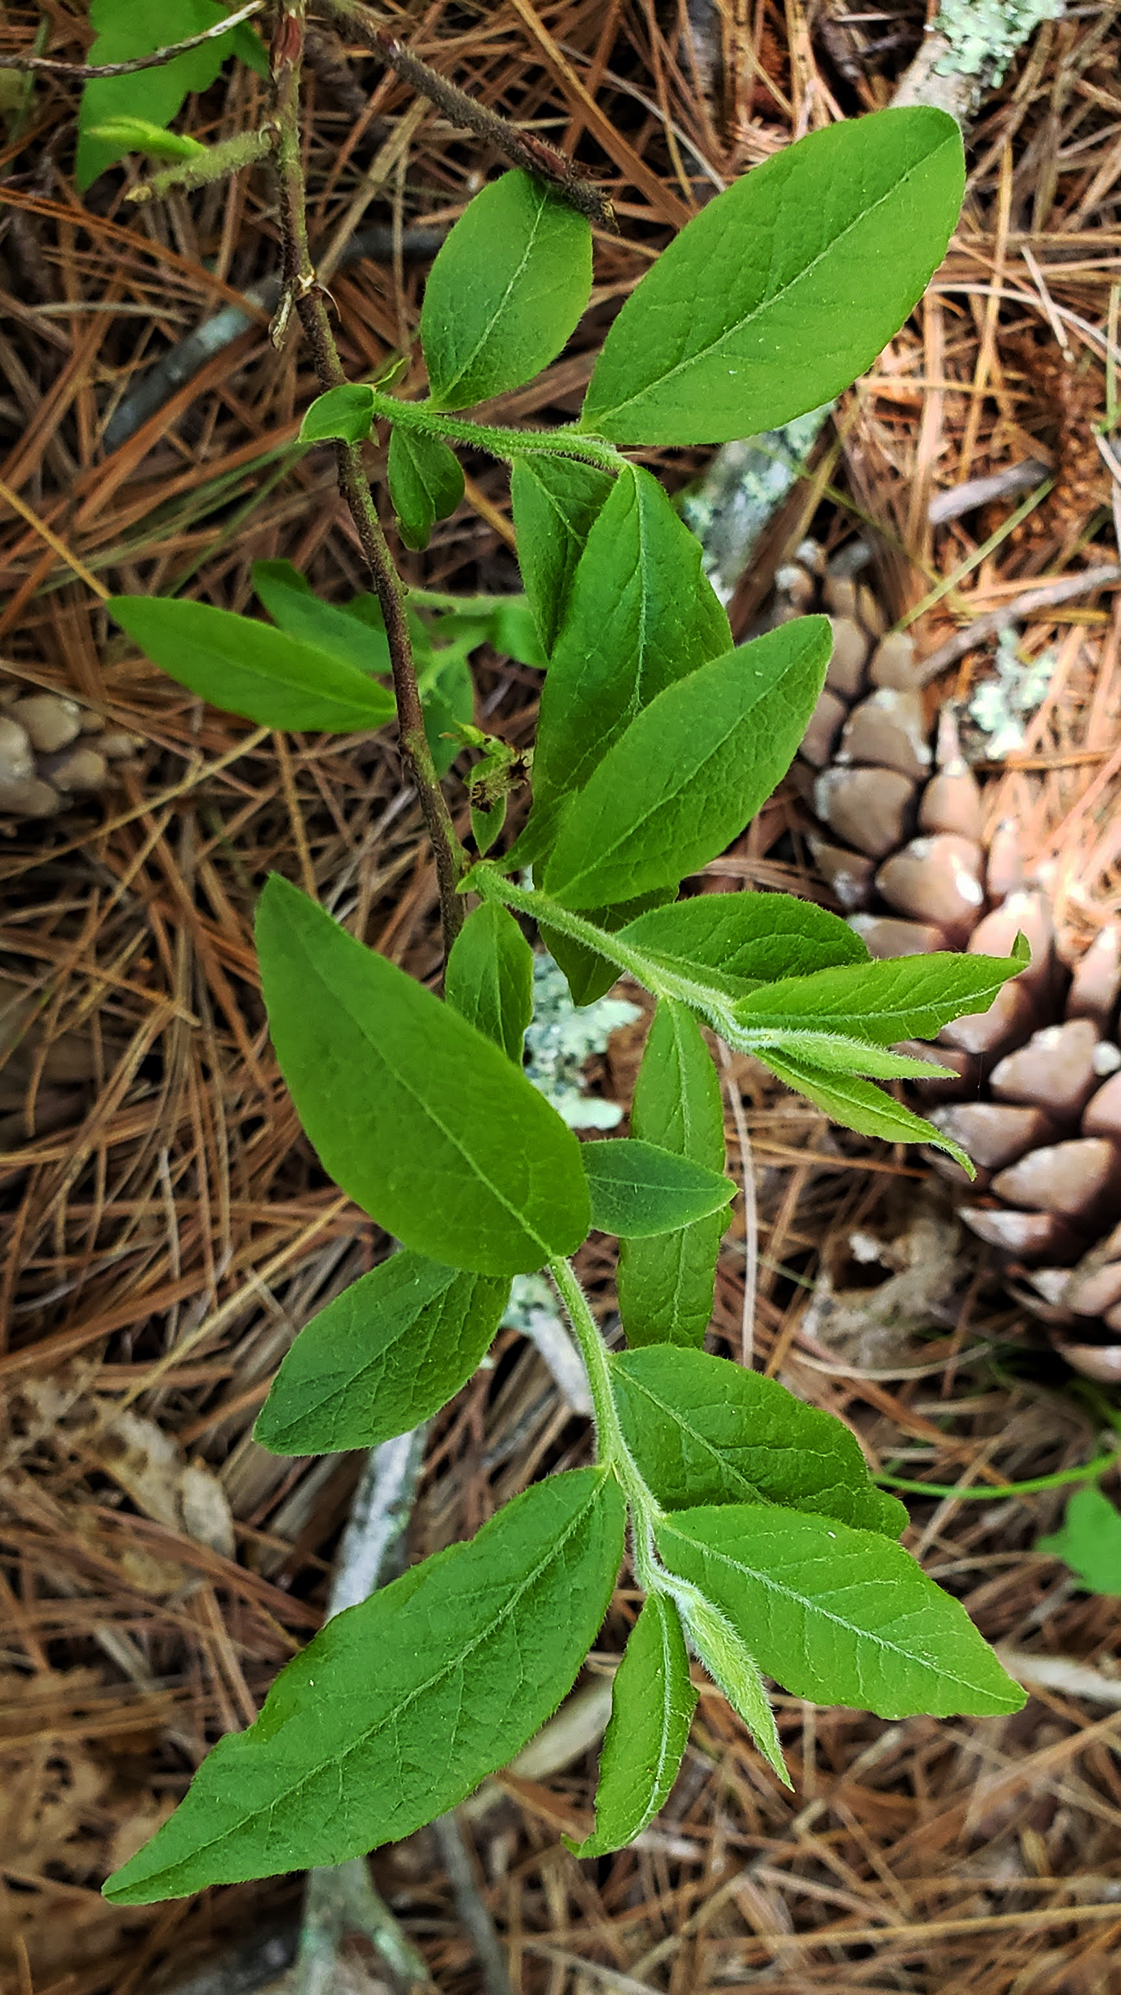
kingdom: Plantae
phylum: Tracheophyta
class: Magnoliopsida
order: Ericales
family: Ericaceae
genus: Vaccinium
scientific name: Vaccinium myrtilloides
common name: Canada blueberry
